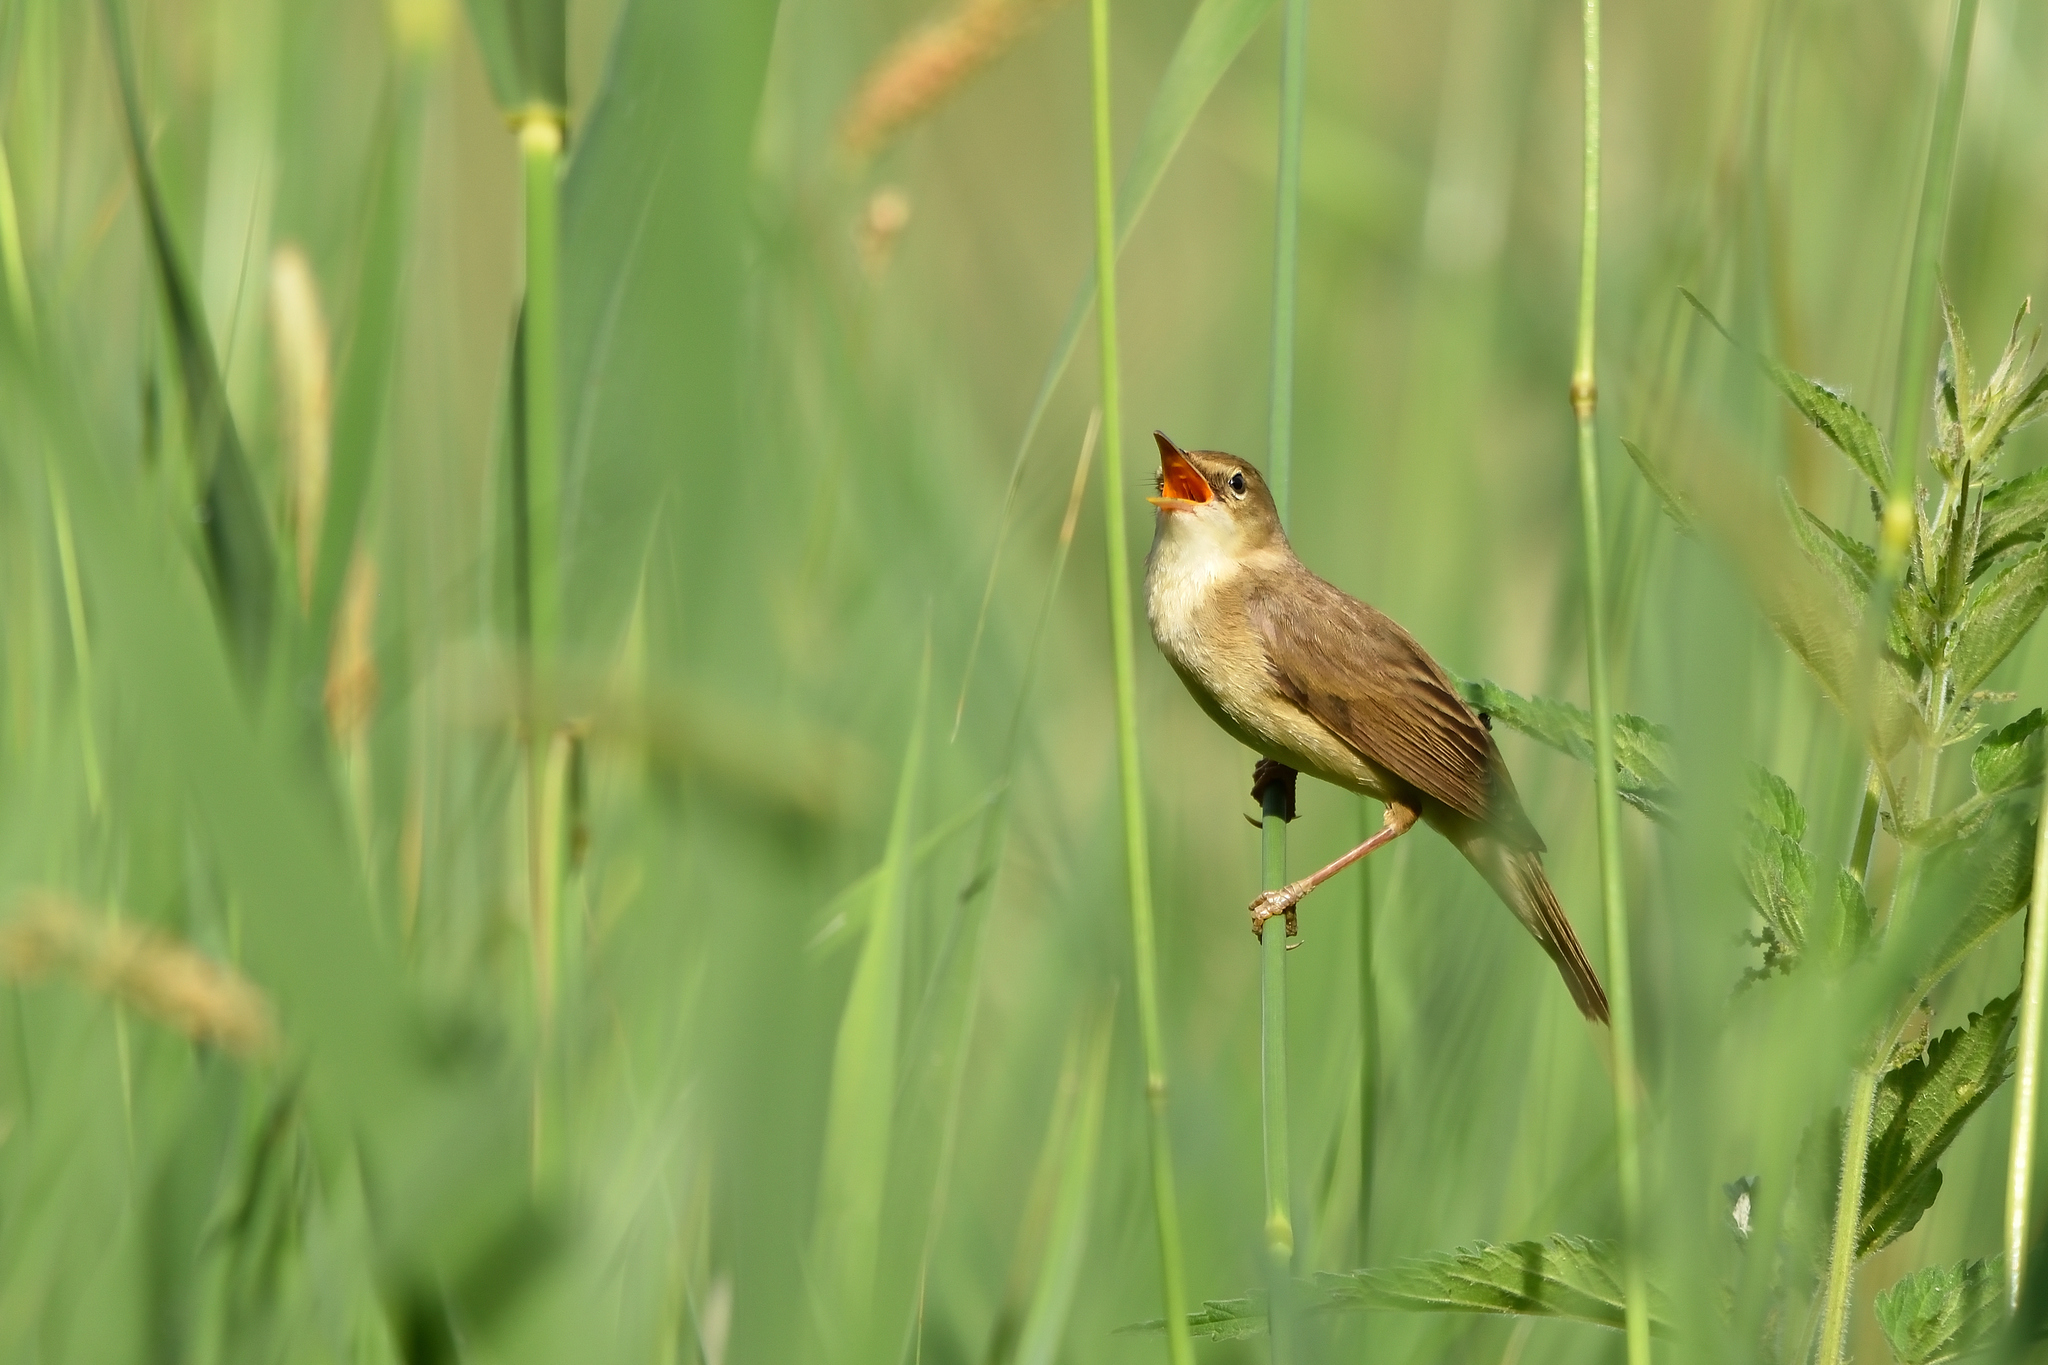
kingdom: Animalia
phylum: Chordata
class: Aves
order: Passeriformes
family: Acrocephalidae
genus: Acrocephalus
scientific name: Acrocephalus palustris
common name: Marsh warbler
